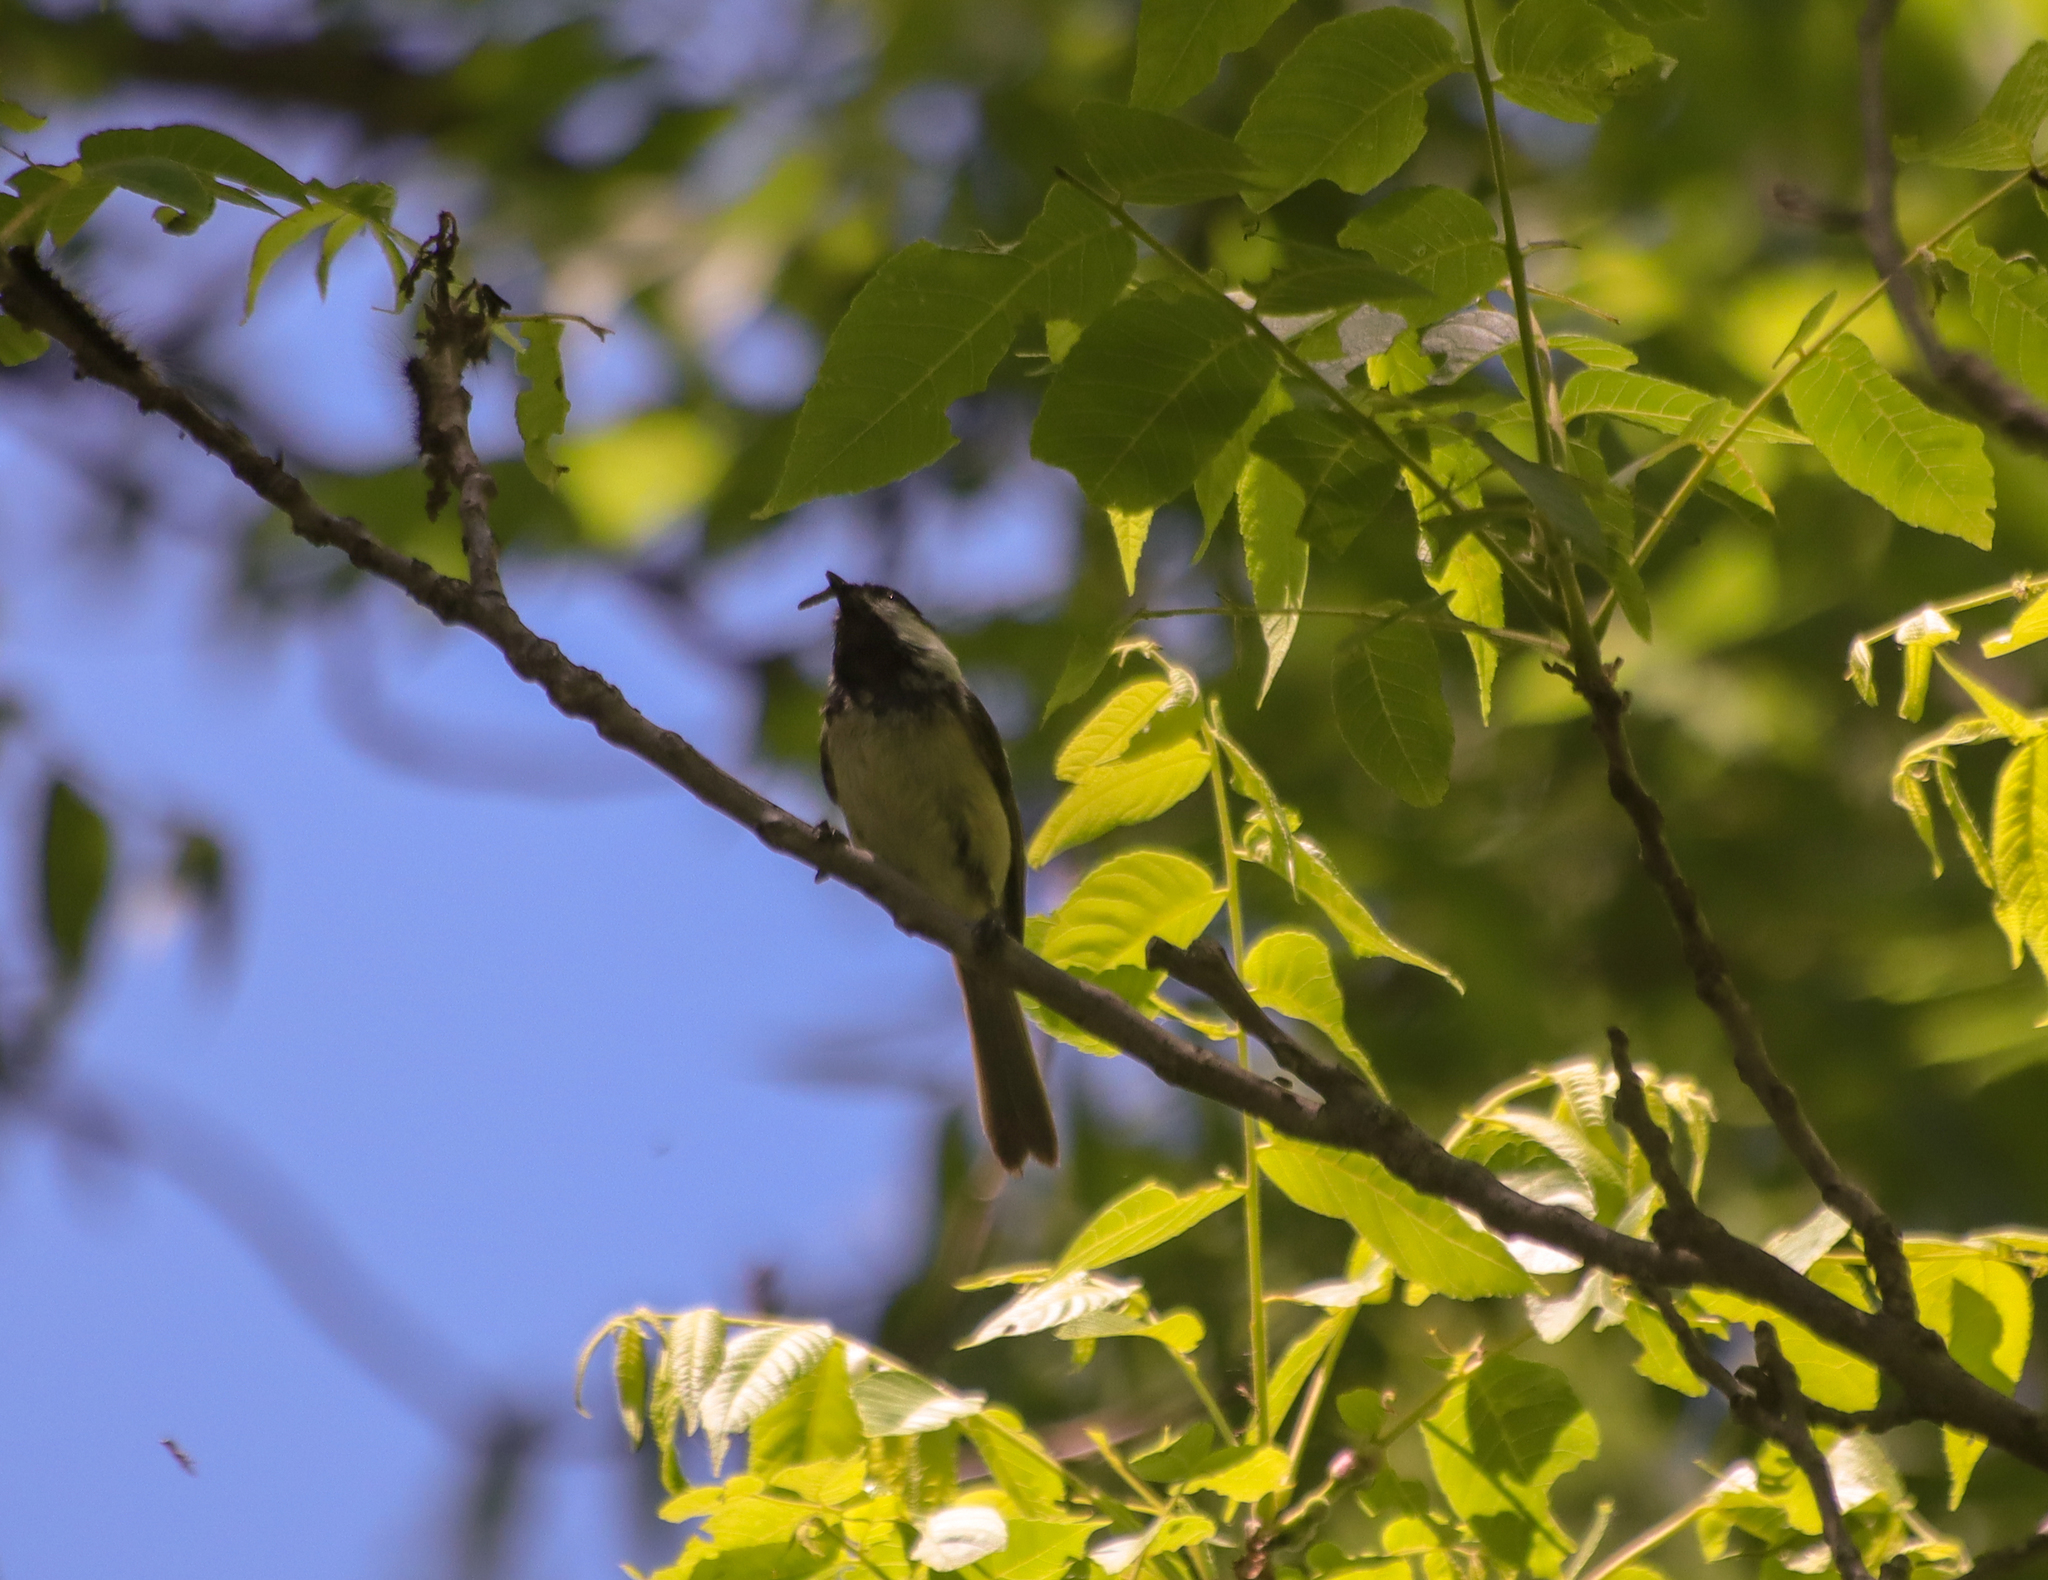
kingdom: Animalia
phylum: Chordata
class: Aves
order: Passeriformes
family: Paridae
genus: Poecile
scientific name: Poecile atricapillus
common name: Black-capped chickadee
